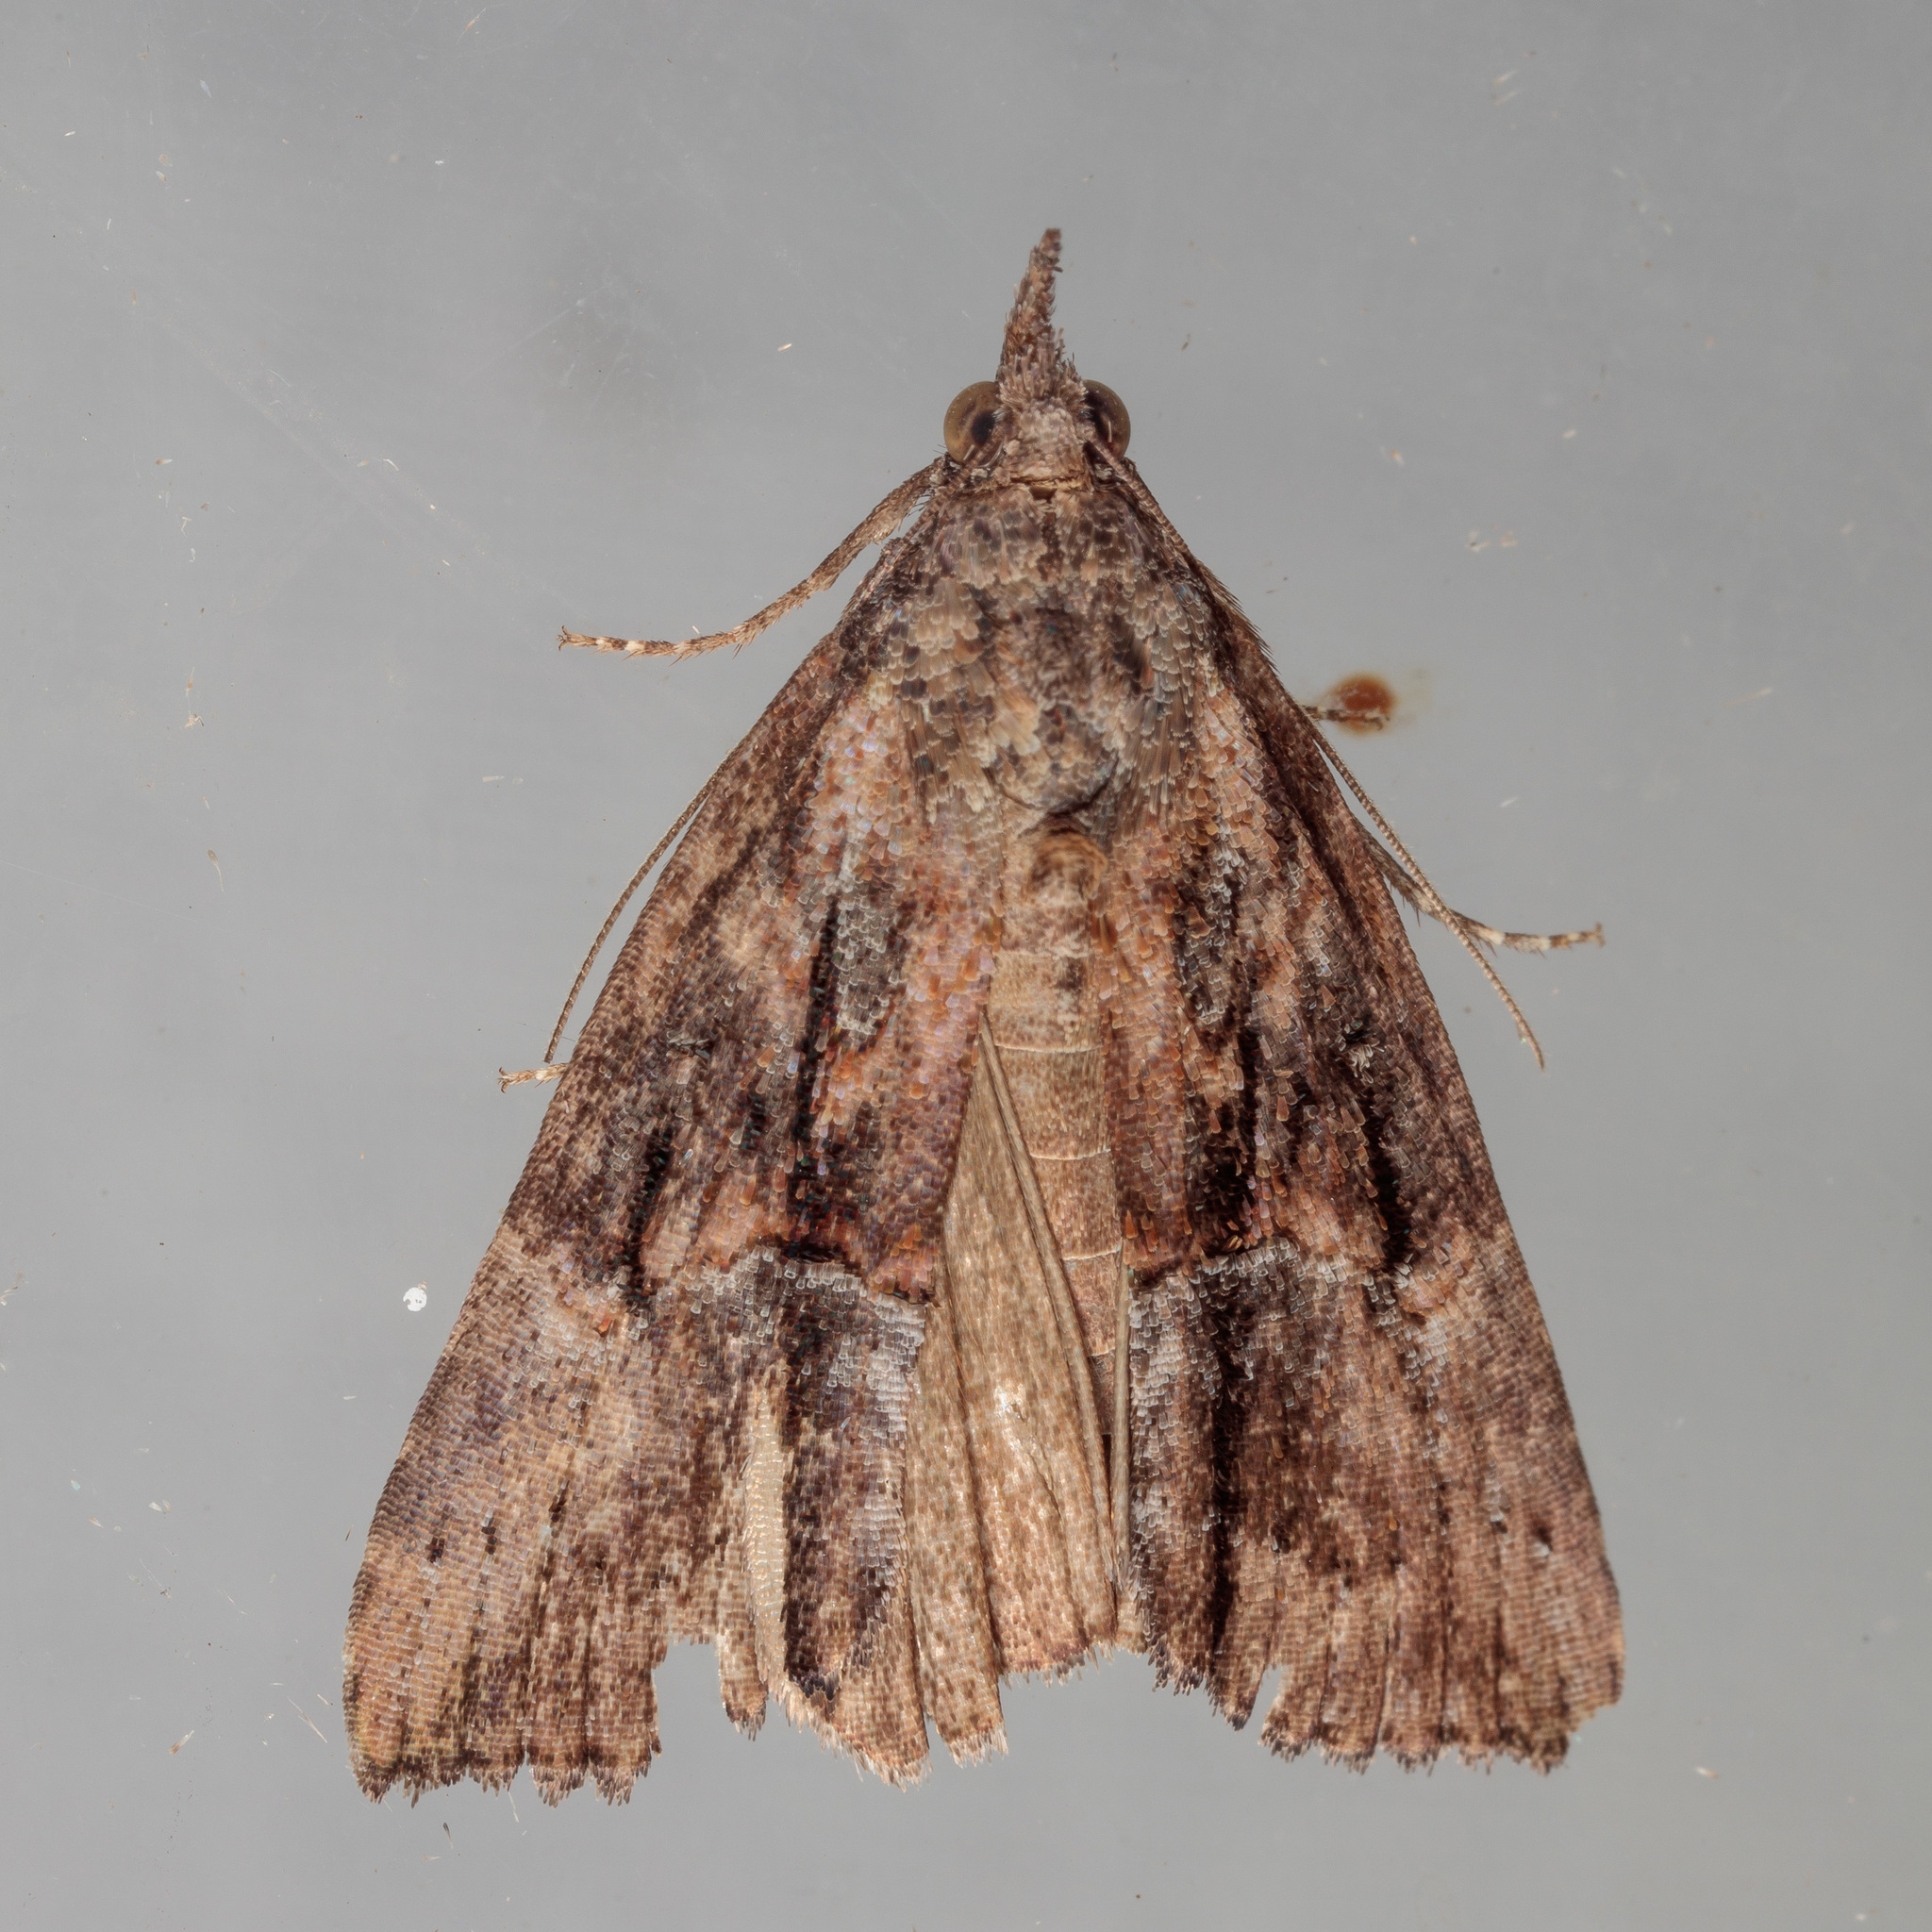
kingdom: Animalia
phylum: Arthropoda
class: Insecta
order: Lepidoptera
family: Erebidae
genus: Hypena
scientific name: Hypena scabra
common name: Green cloverworm
